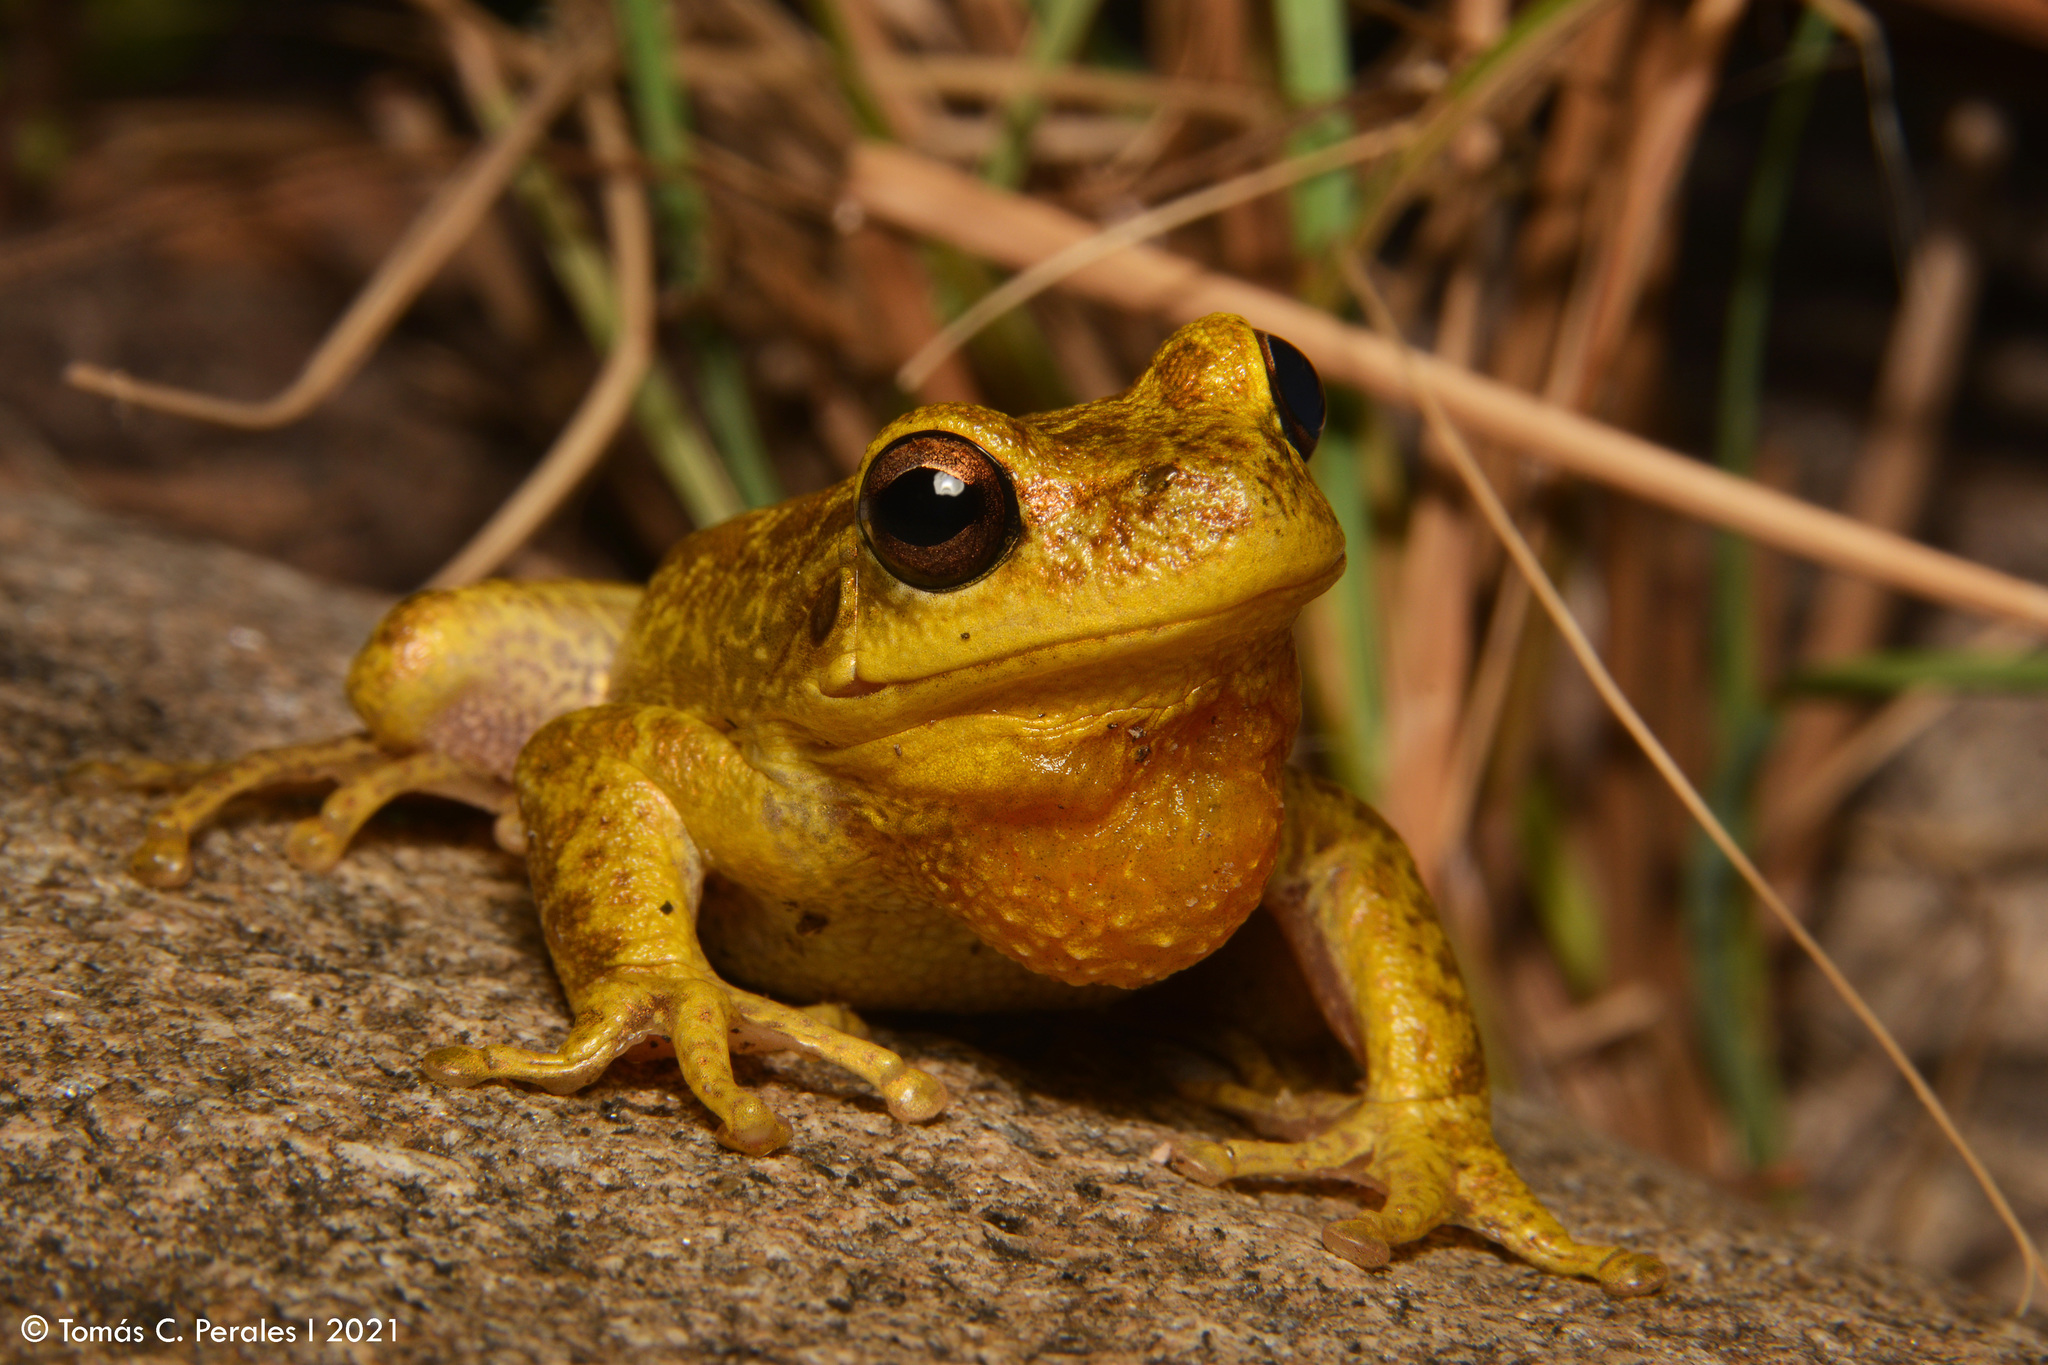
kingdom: Animalia
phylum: Chordata
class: Amphibia
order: Anura
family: Hylidae
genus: Boana
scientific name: Boana cordobae
